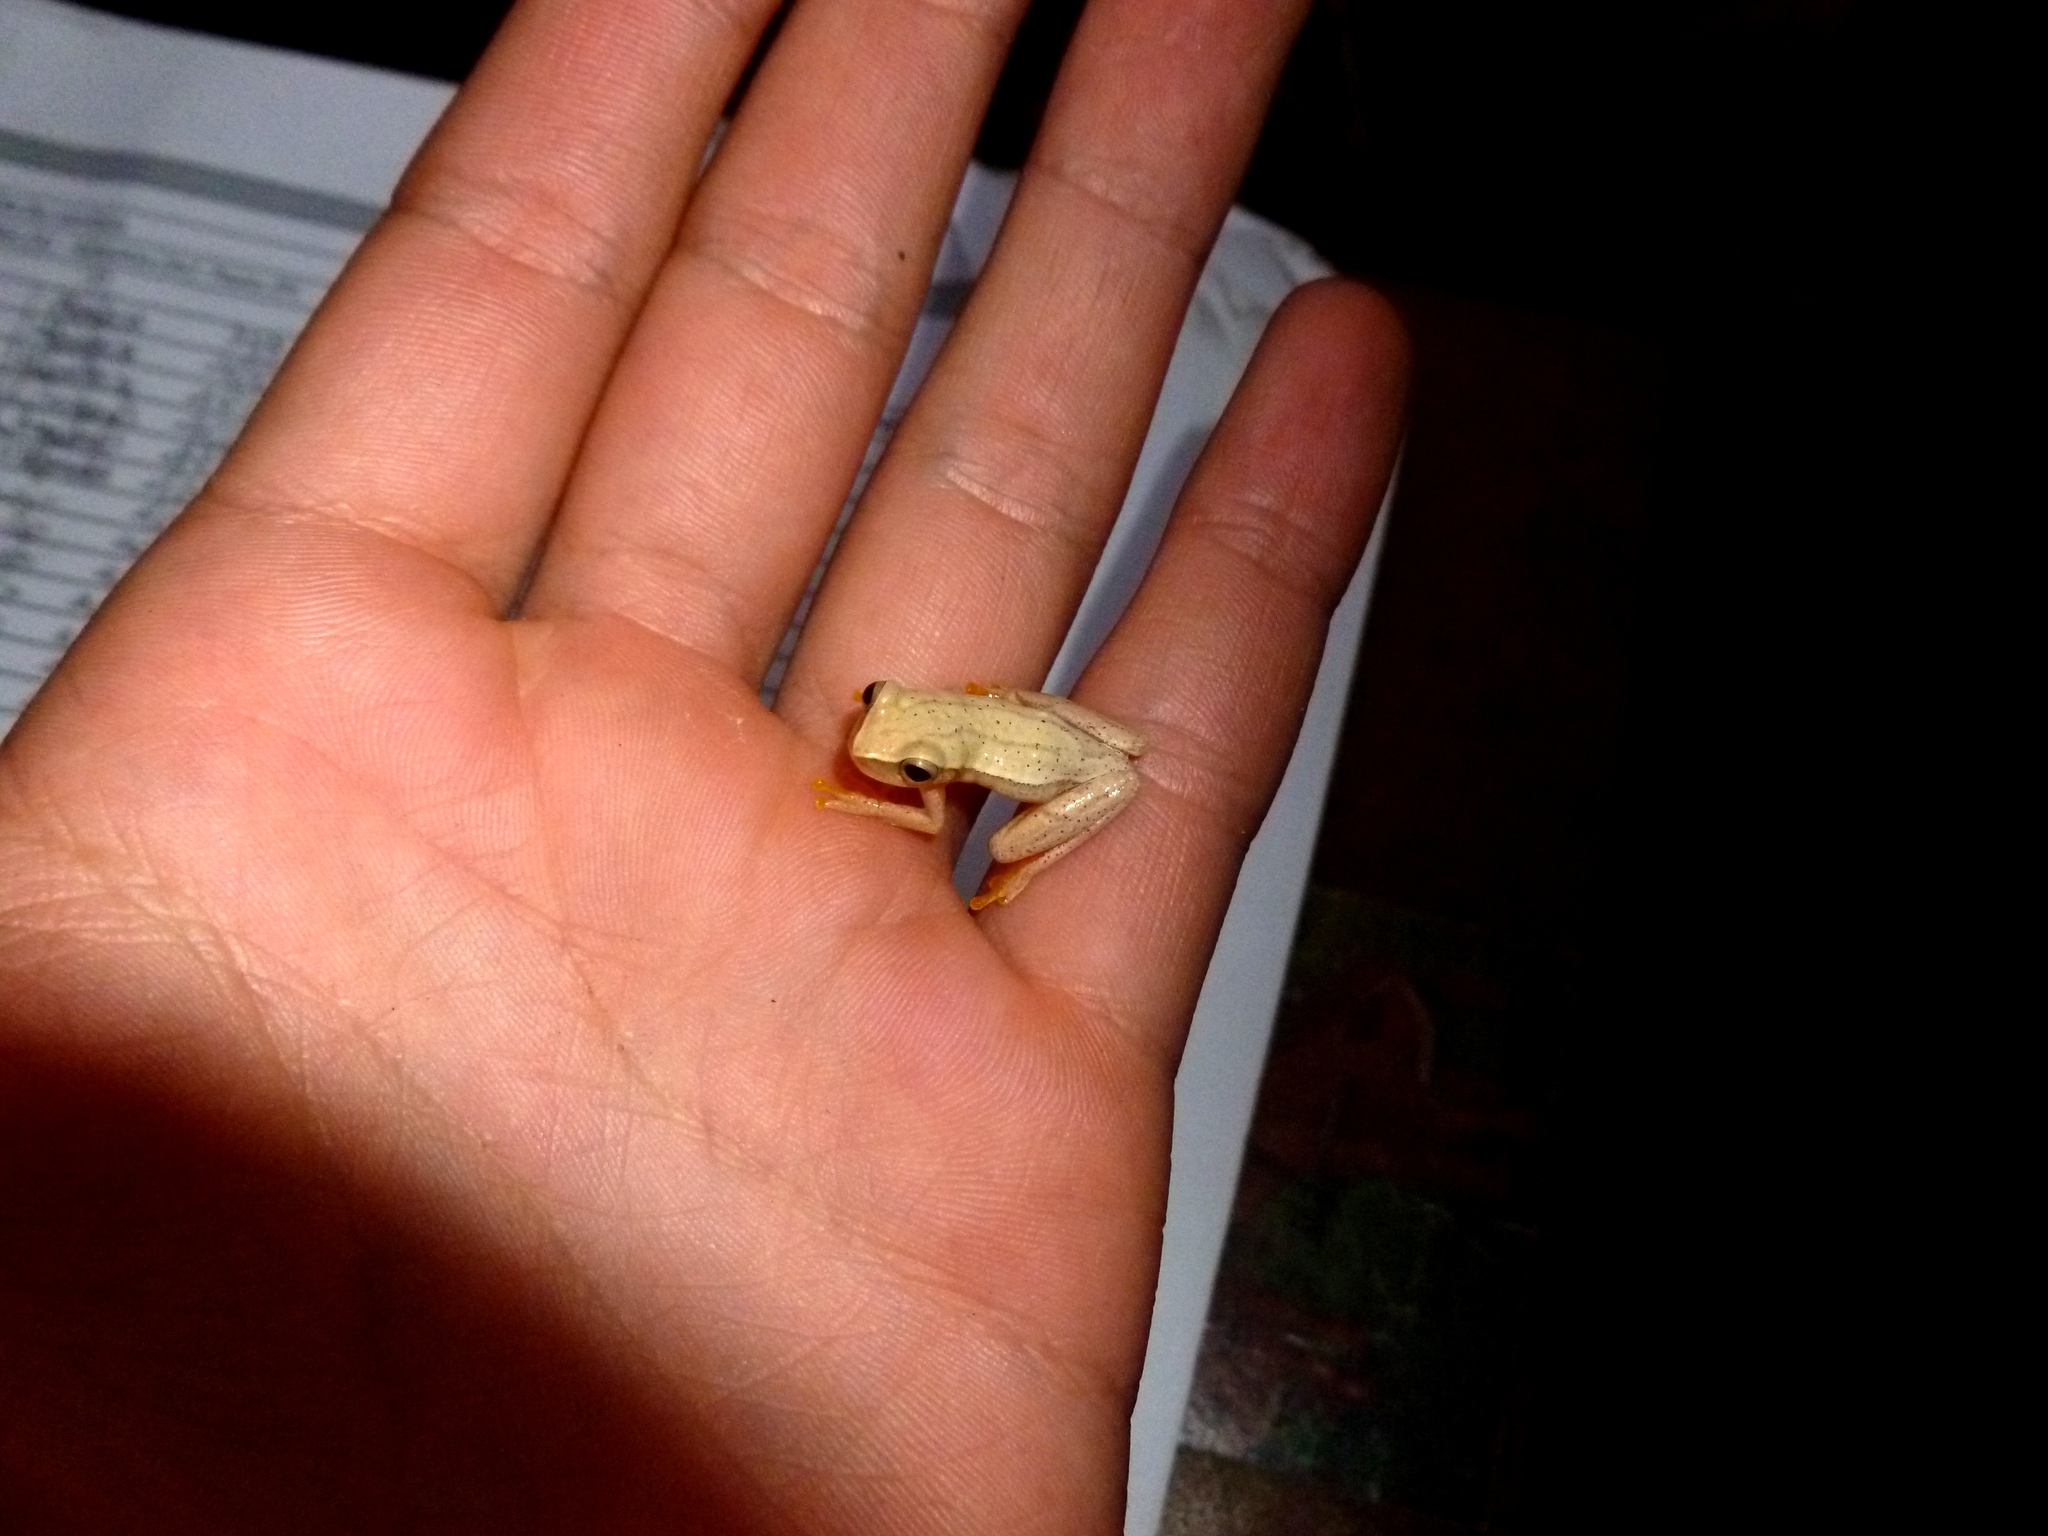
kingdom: Animalia
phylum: Chordata
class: Amphibia
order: Anura
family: Hylidae
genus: Dendropsophus
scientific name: Dendropsophus microcephalus
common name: Small-headed treefrog
